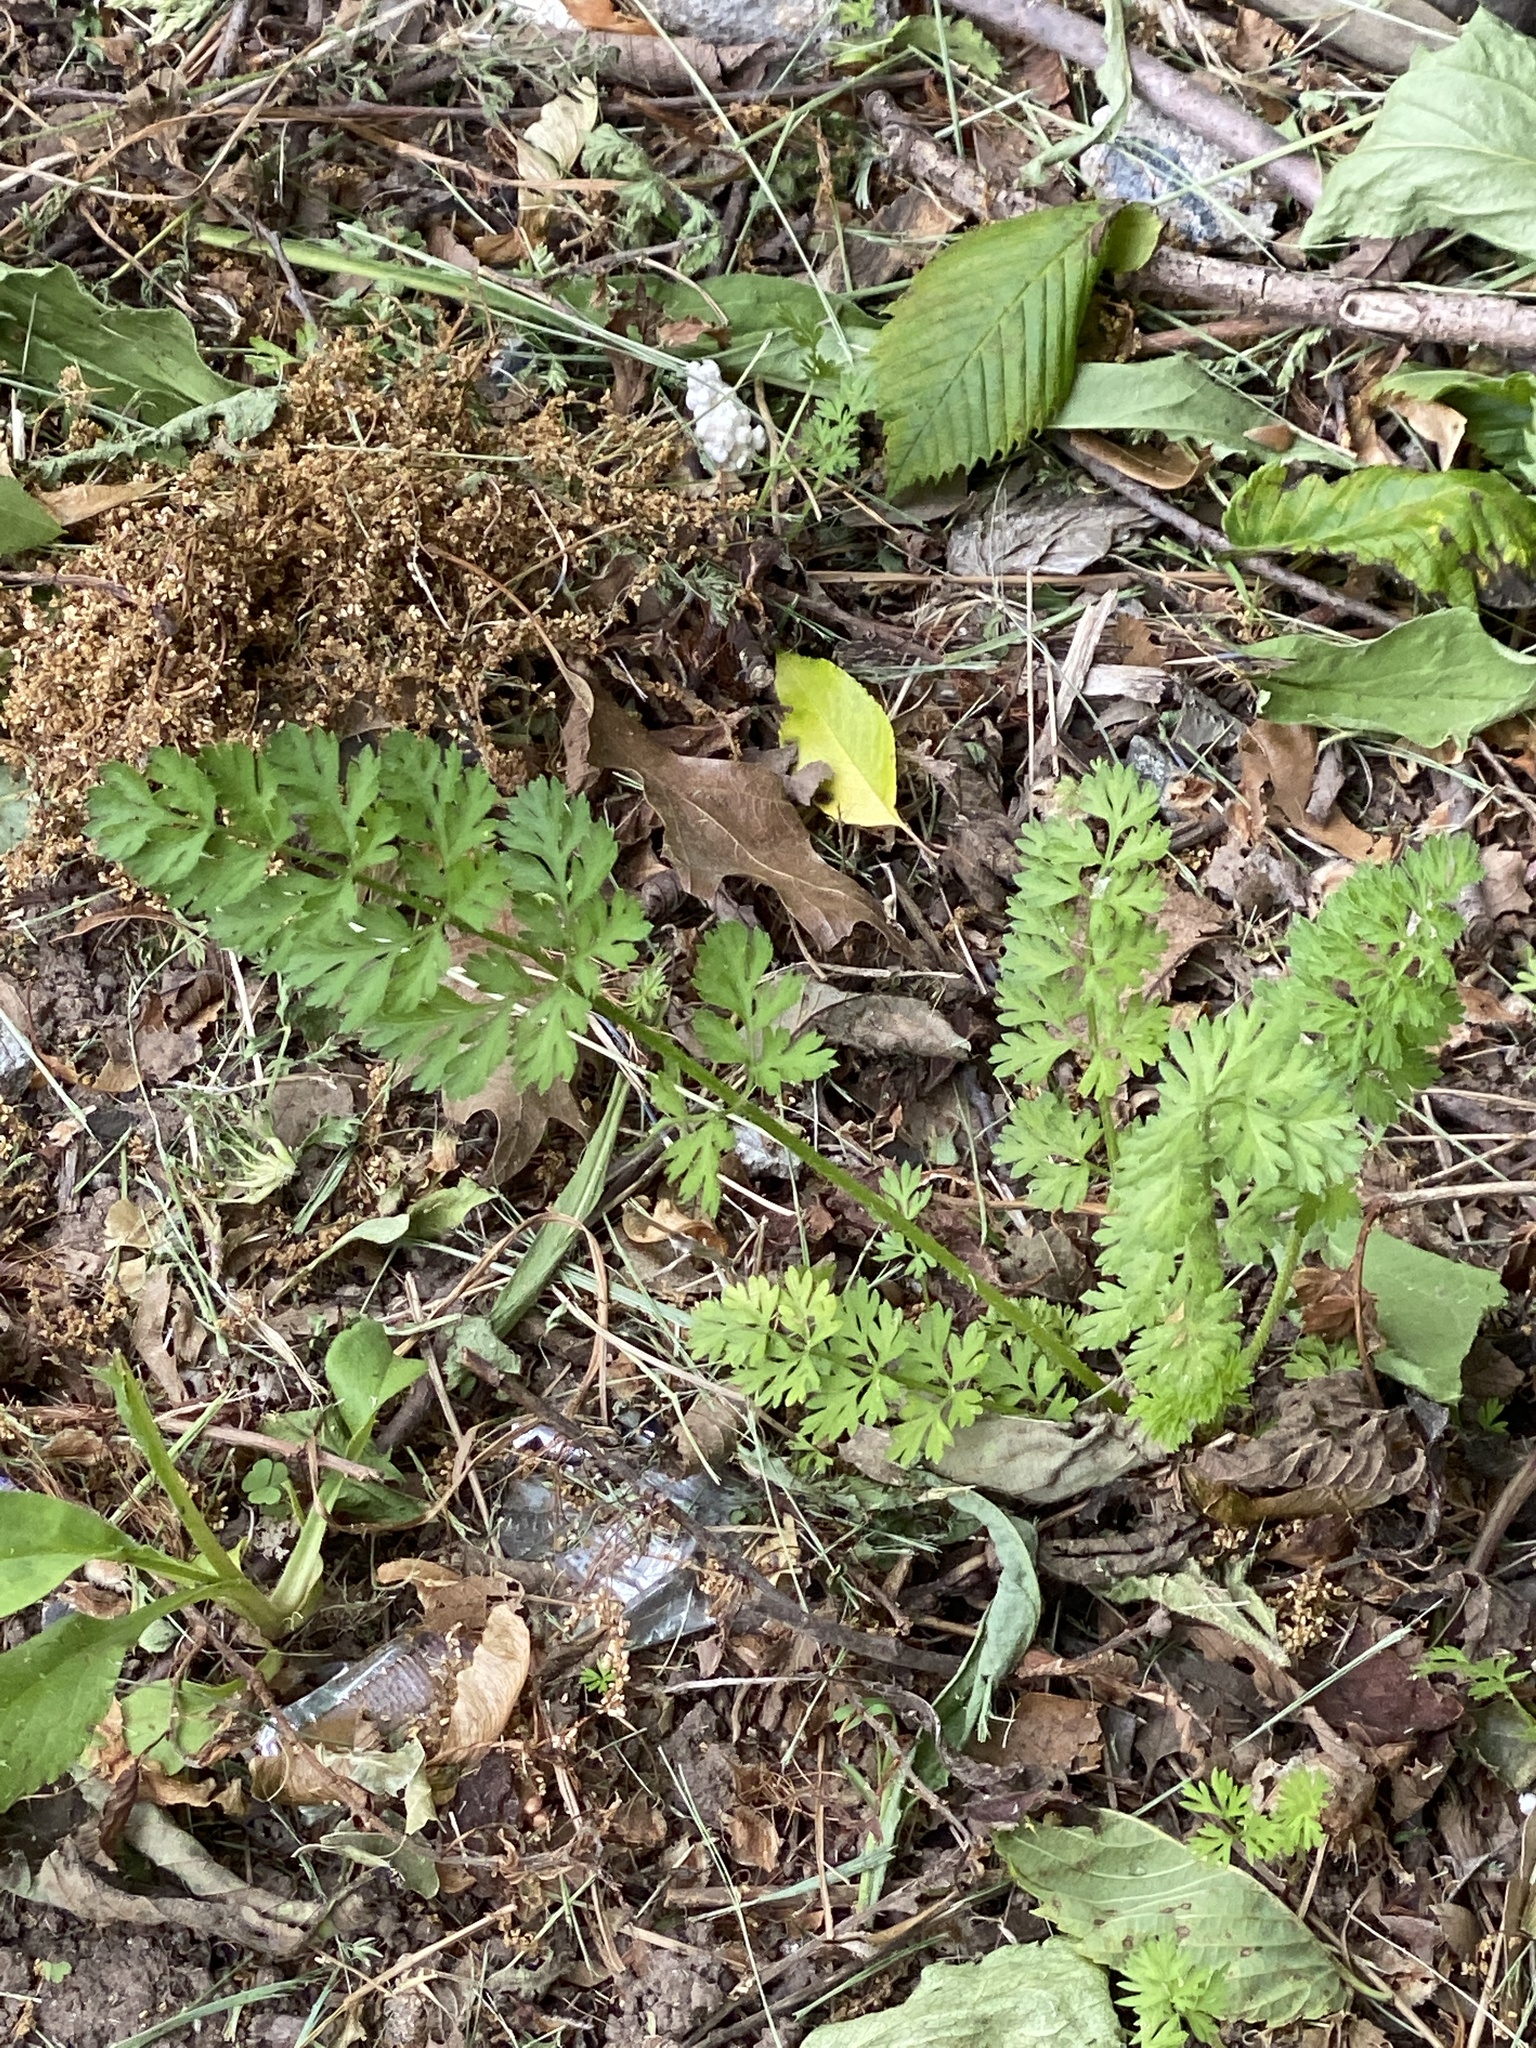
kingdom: Plantae
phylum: Tracheophyta
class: Magnoliopsida
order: Apiales
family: Apiaceae
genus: Daucus
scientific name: Daucus carota
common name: Wild carrot
